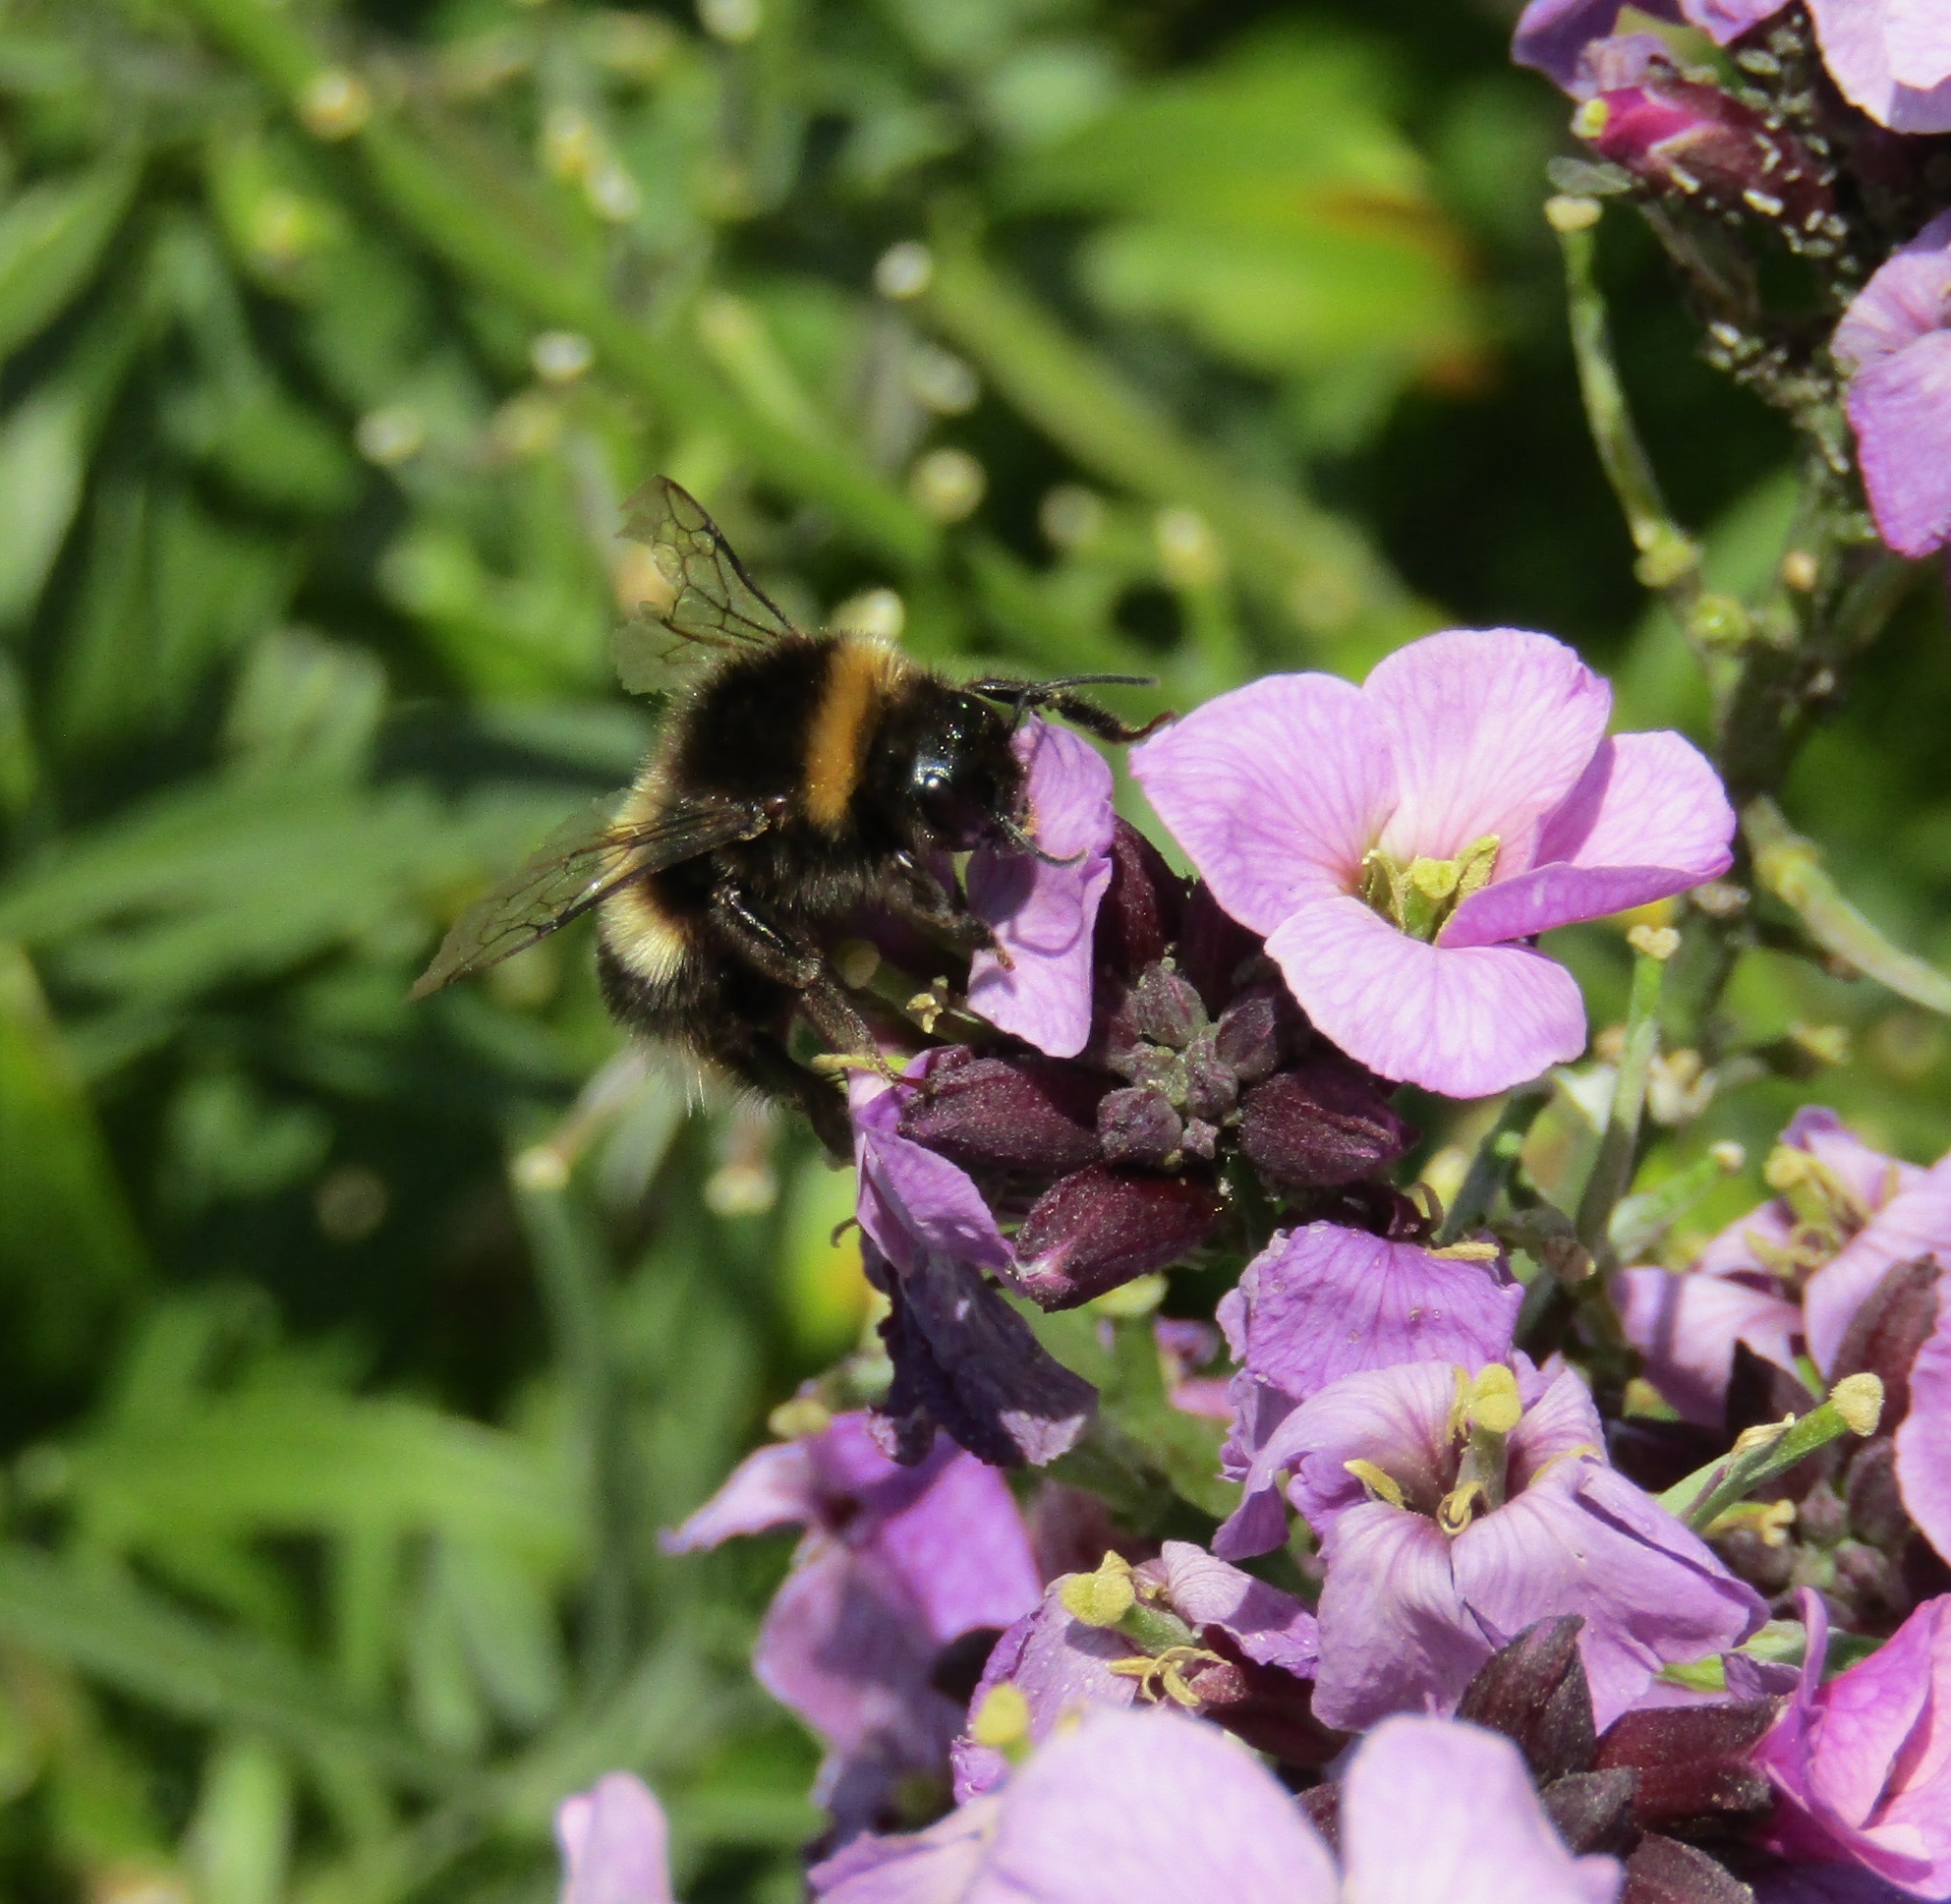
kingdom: Animalia
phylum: Arthropoda
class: Insecta
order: Hymenoptera
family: Apidae
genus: Bombus
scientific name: Bombus terrestris
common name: Buff-tailed bumblebee
